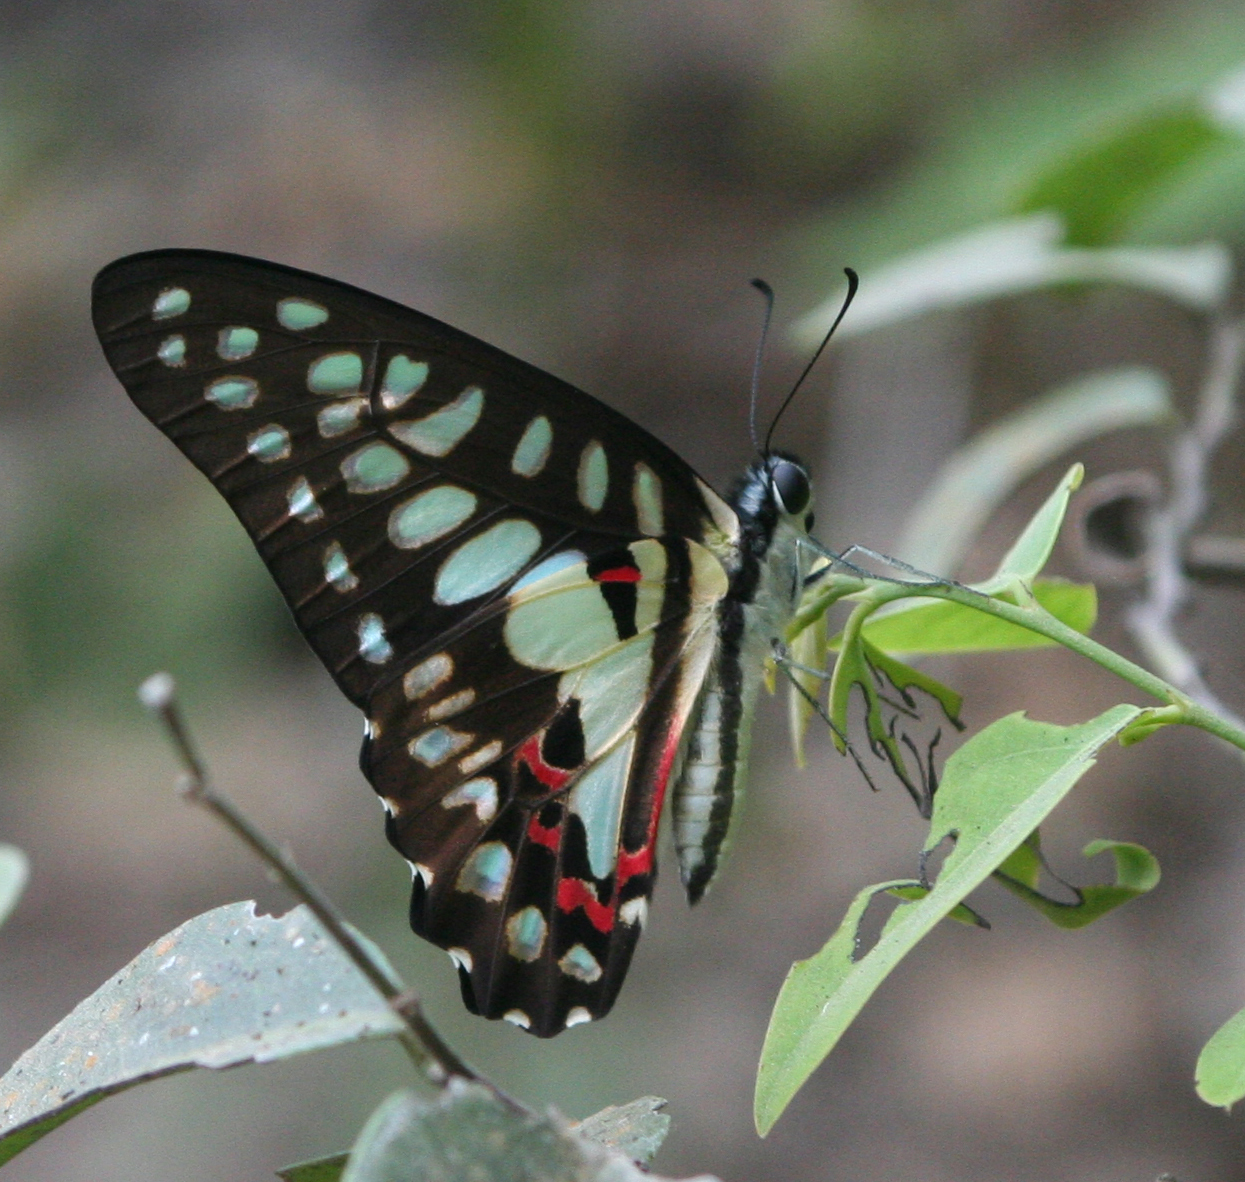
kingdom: Animalia
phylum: Arthropoda
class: Insecta
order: Lepidoptera
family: Papilionidae
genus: Graphium
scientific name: Graphium doson
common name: Common jay
